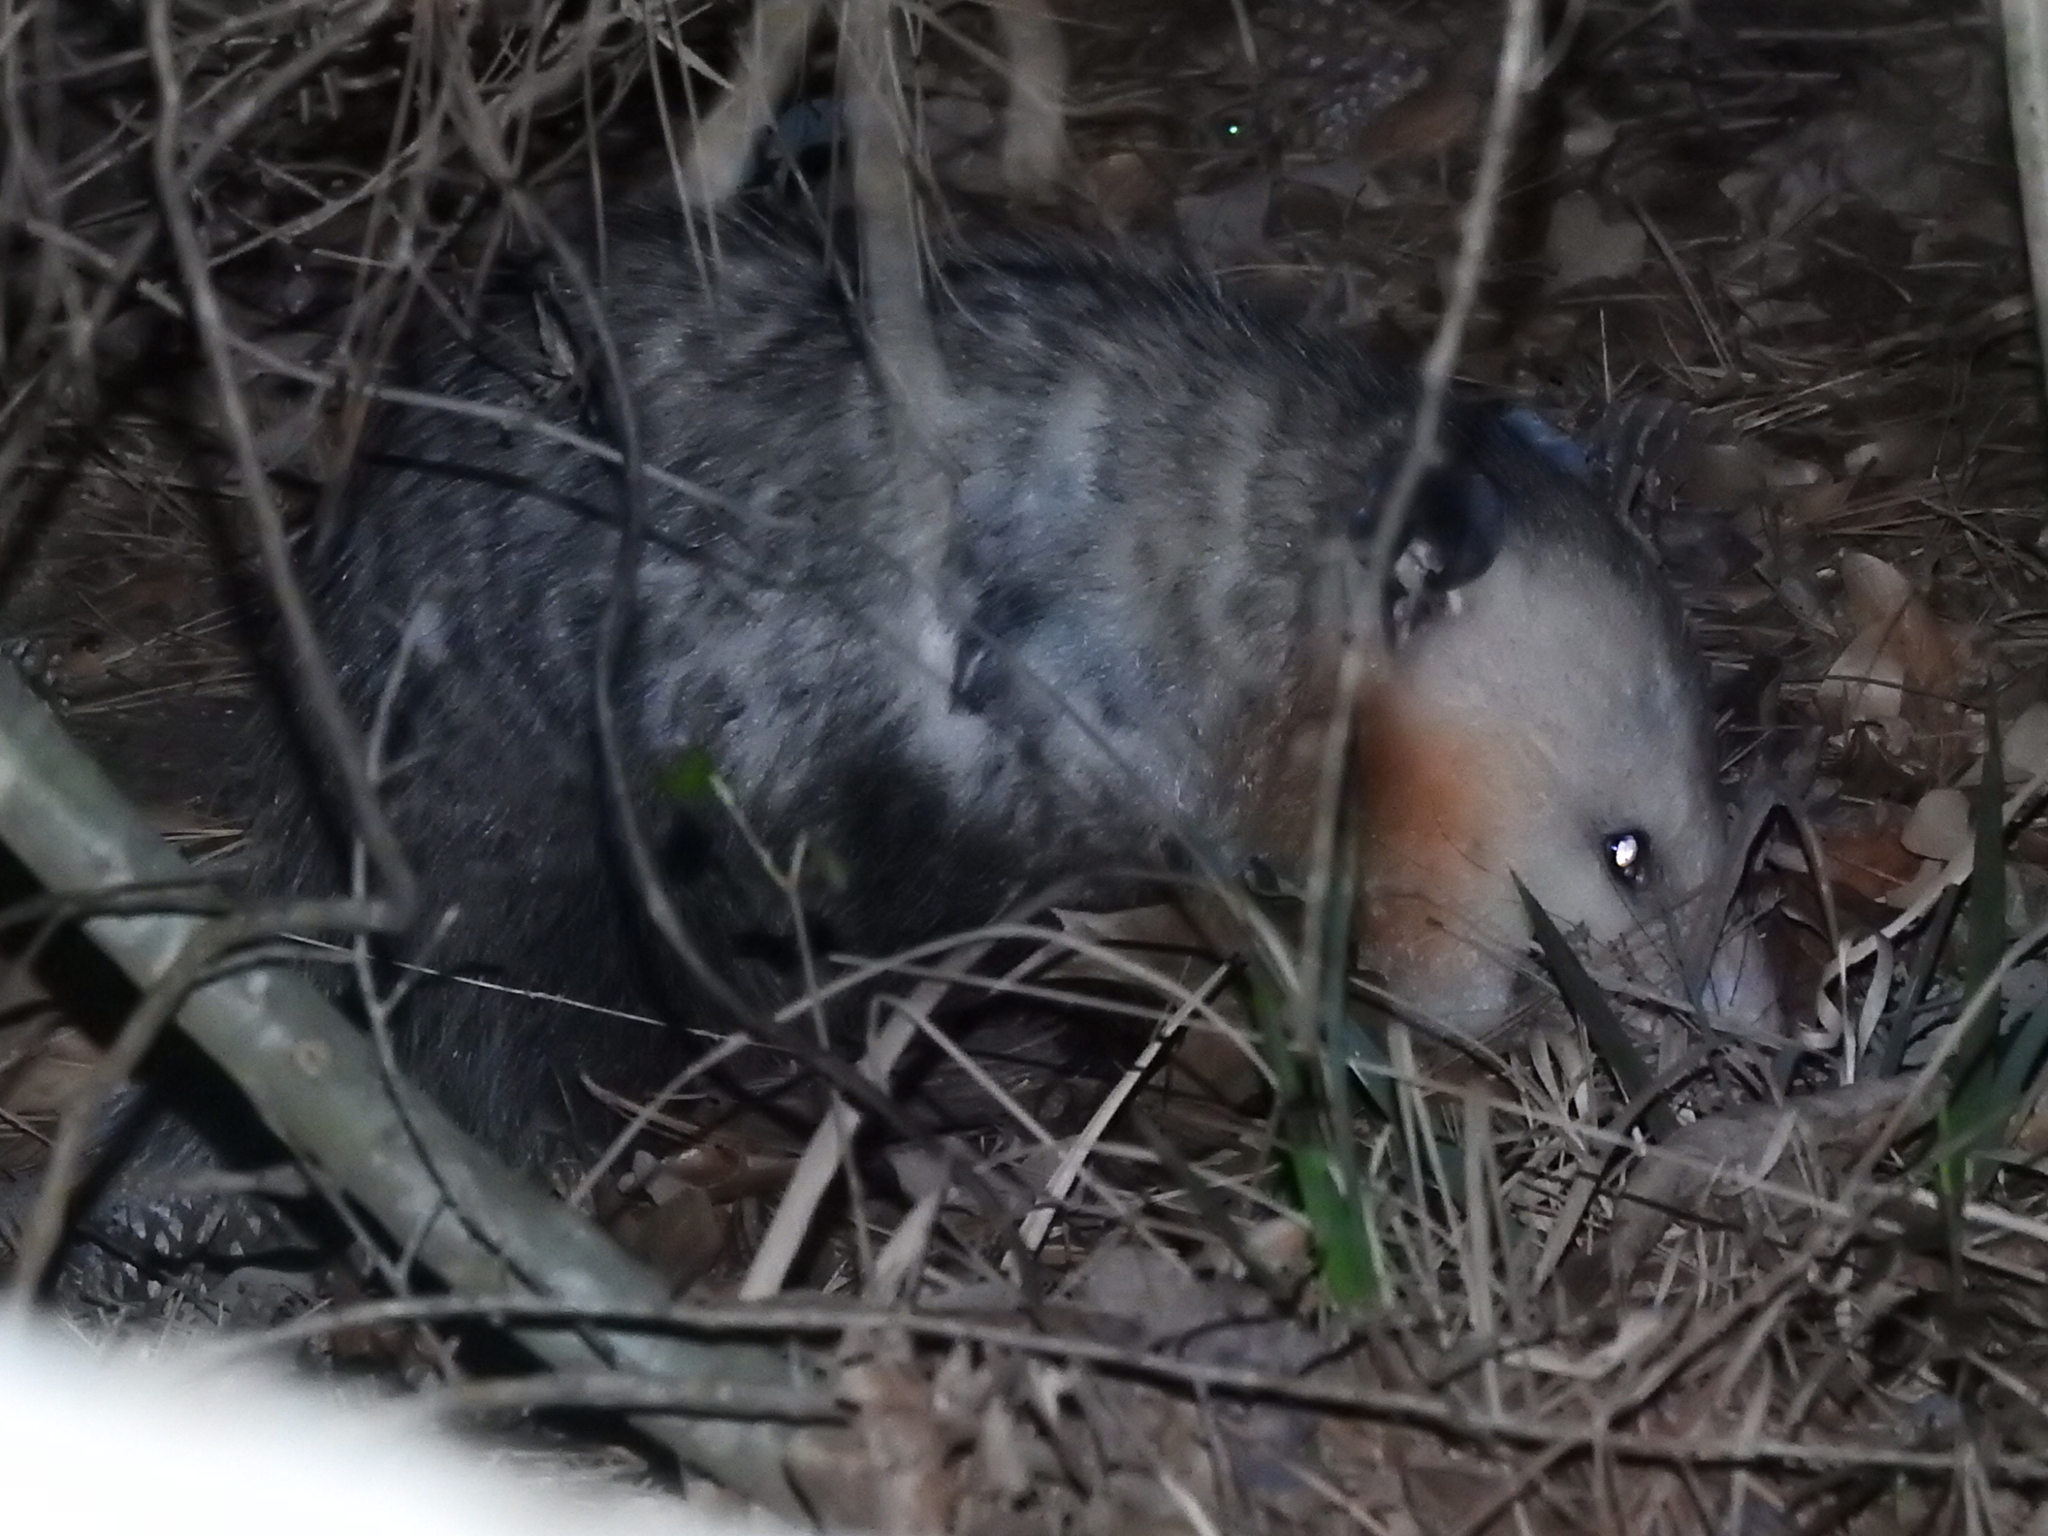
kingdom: Animalia
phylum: Chordata
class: Mammalia
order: Didelphimorphia
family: Didelphidae
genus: Didelphis
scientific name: Didelphis virginiana
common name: Virginia opossum
